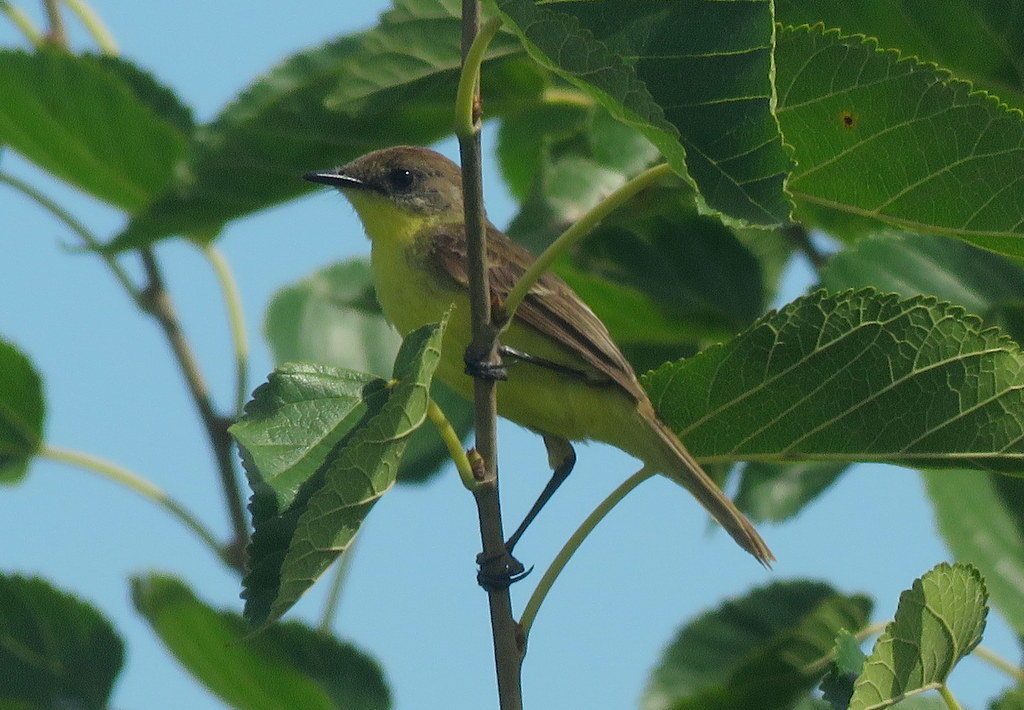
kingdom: Animalia
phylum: Chordata
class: Aves
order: Passeriformes
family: Tyrannidae
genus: Pseudocolopteryx
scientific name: Pseudocolopteryx flaviventris
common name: Warbling doradito
